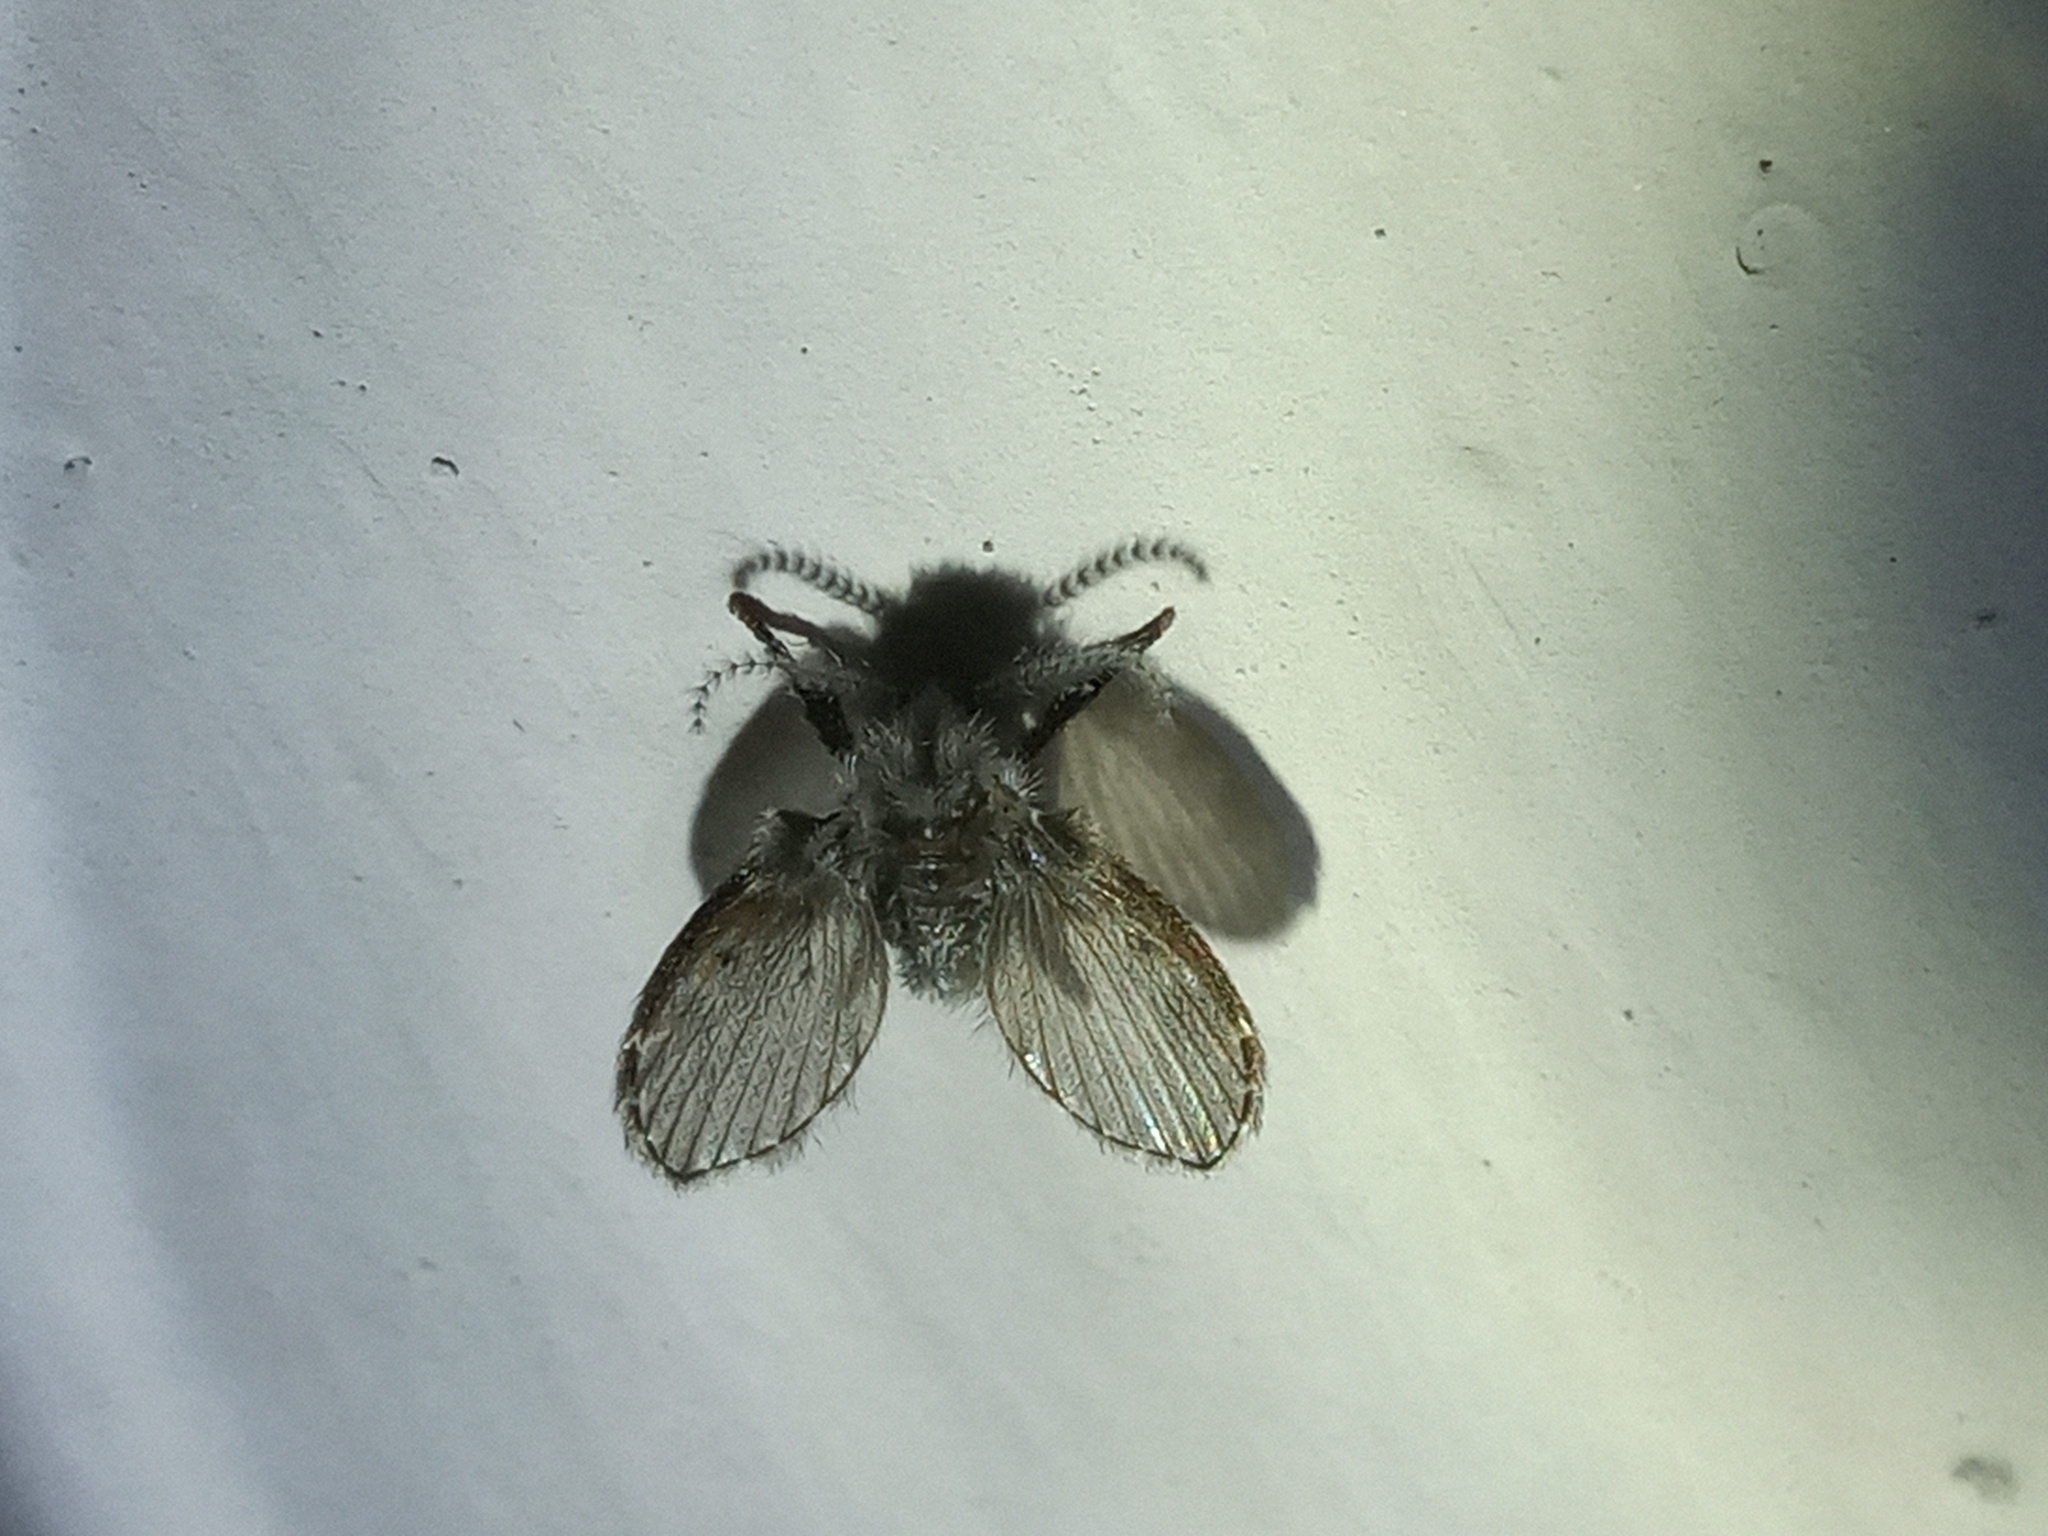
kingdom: Animalia
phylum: Arthropoda
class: Insecta
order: Diptera
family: Psychodidae
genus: Clogmia
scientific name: Clogmia albipunctatus
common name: White-spotted moth fly
